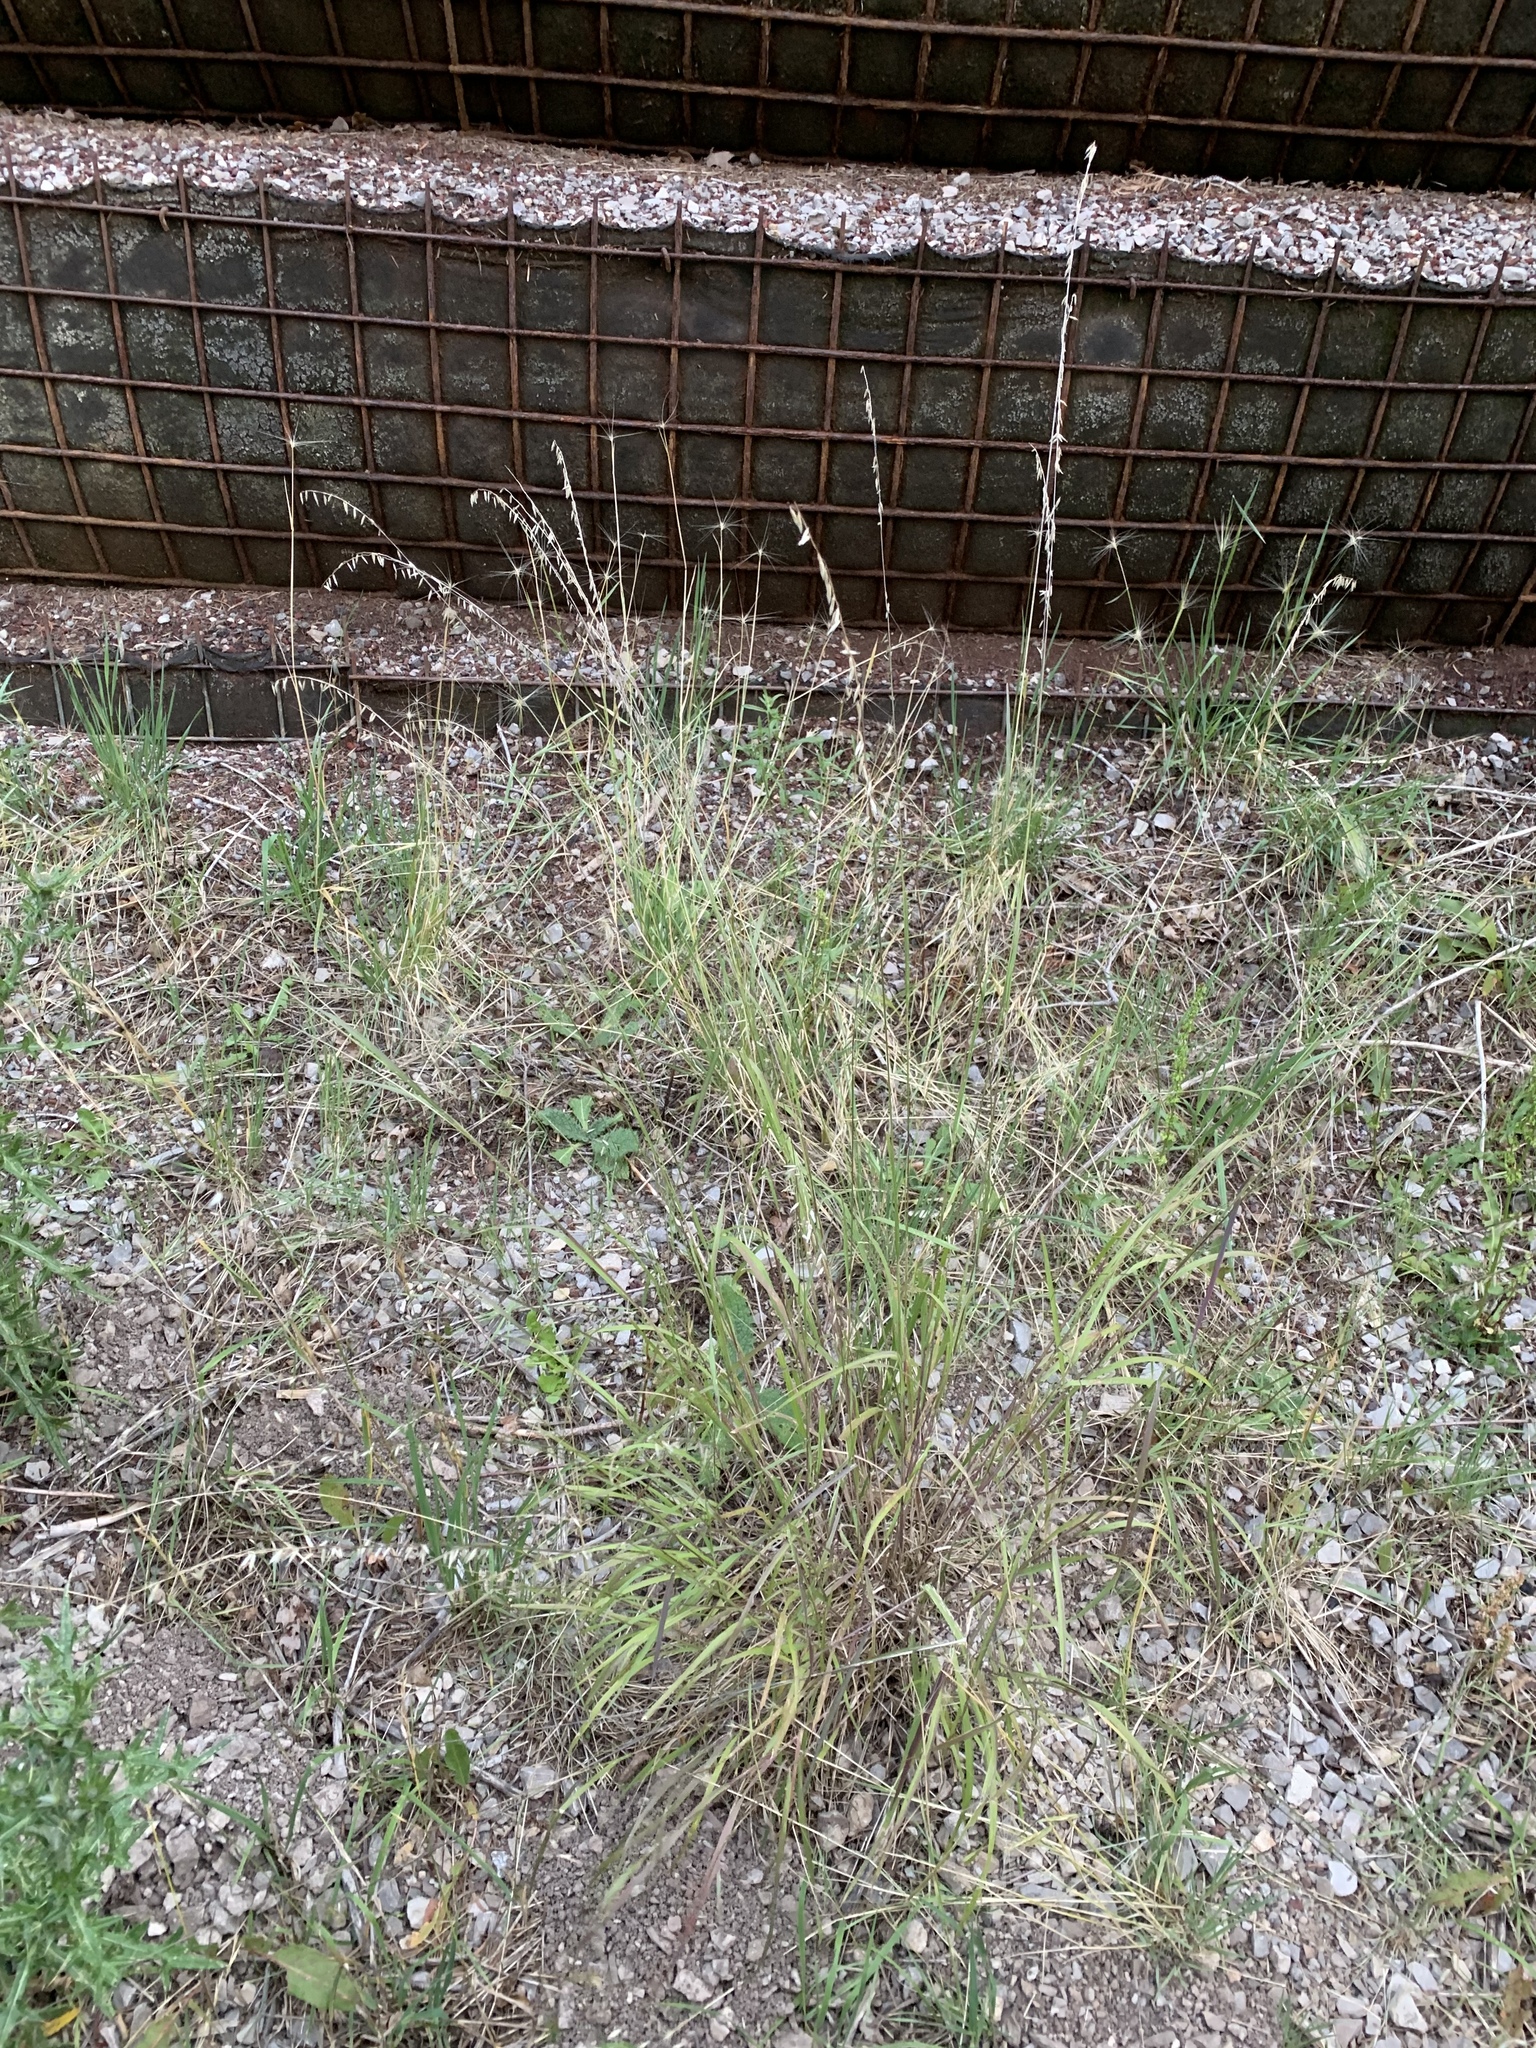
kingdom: Plantae
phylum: Tracheophyta
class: Liliopsida
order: Poales
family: Poaceae
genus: Bouteloua
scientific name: Bouteloua curtipendula
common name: Side-oats grama
